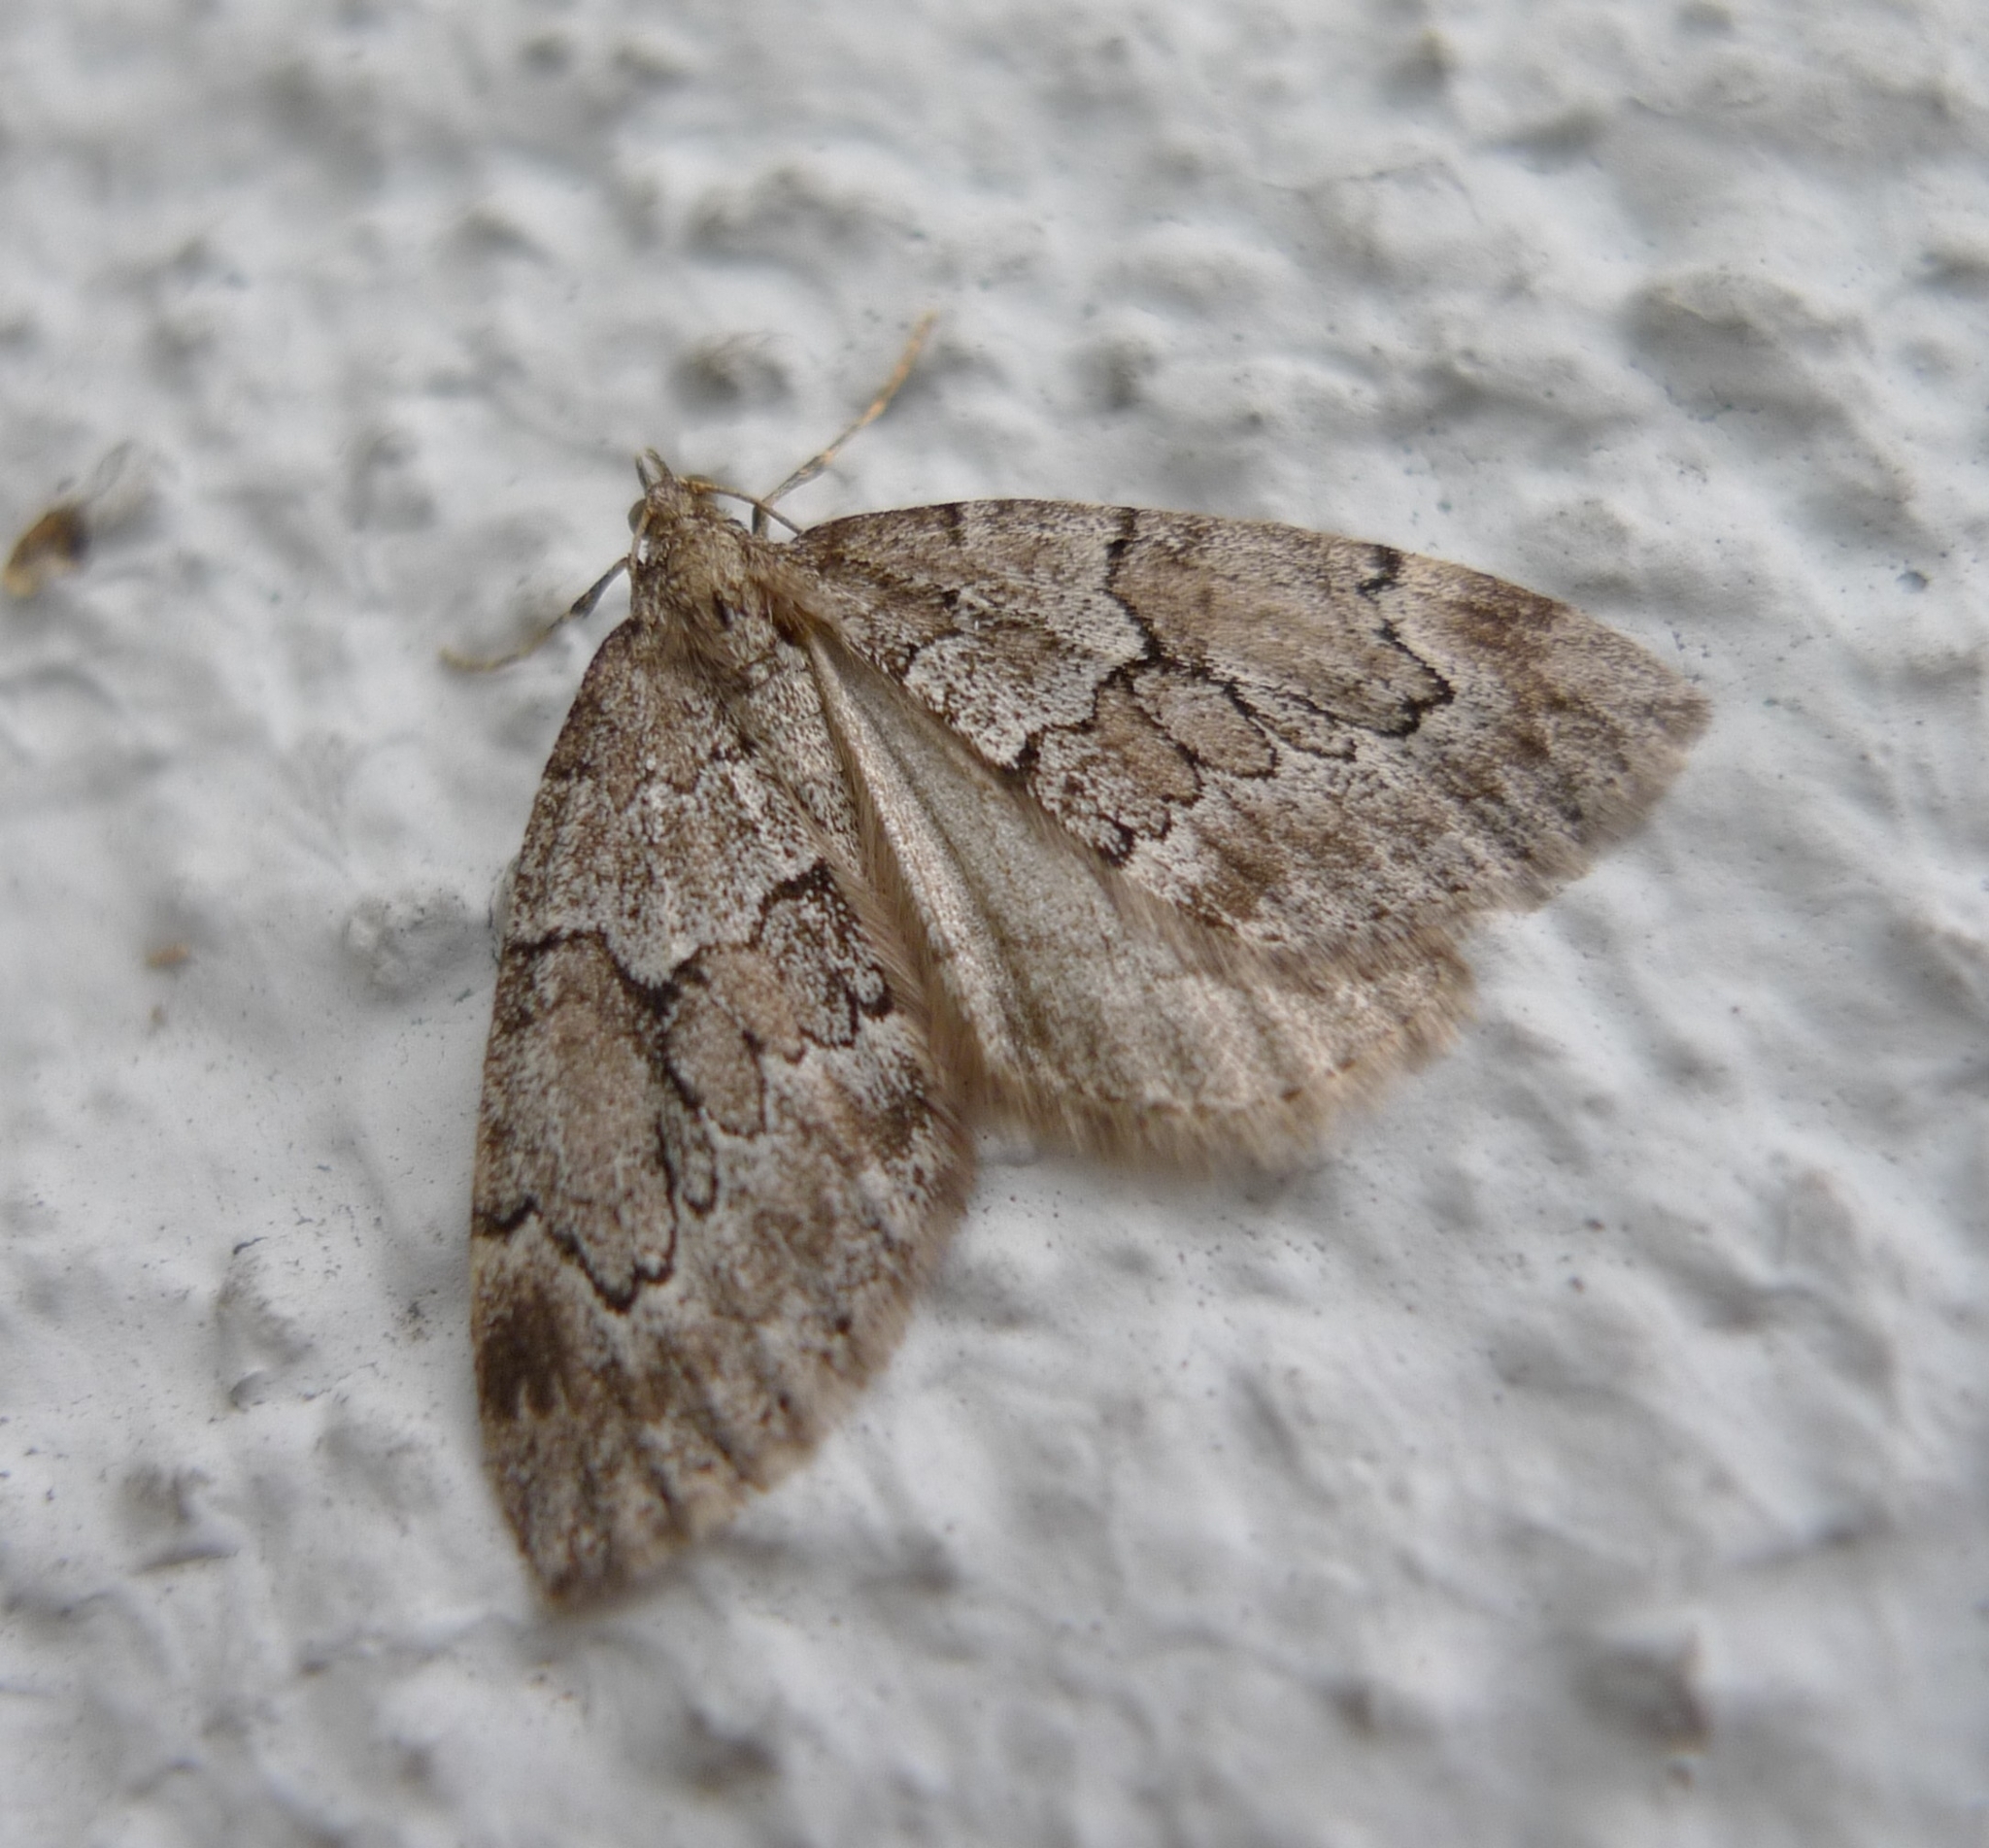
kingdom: Animalia
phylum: Arthropoda
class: Insecta
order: Lepidoptera
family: Geometridae
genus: Thera
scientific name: Thera juniperata
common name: Juniper carpet
